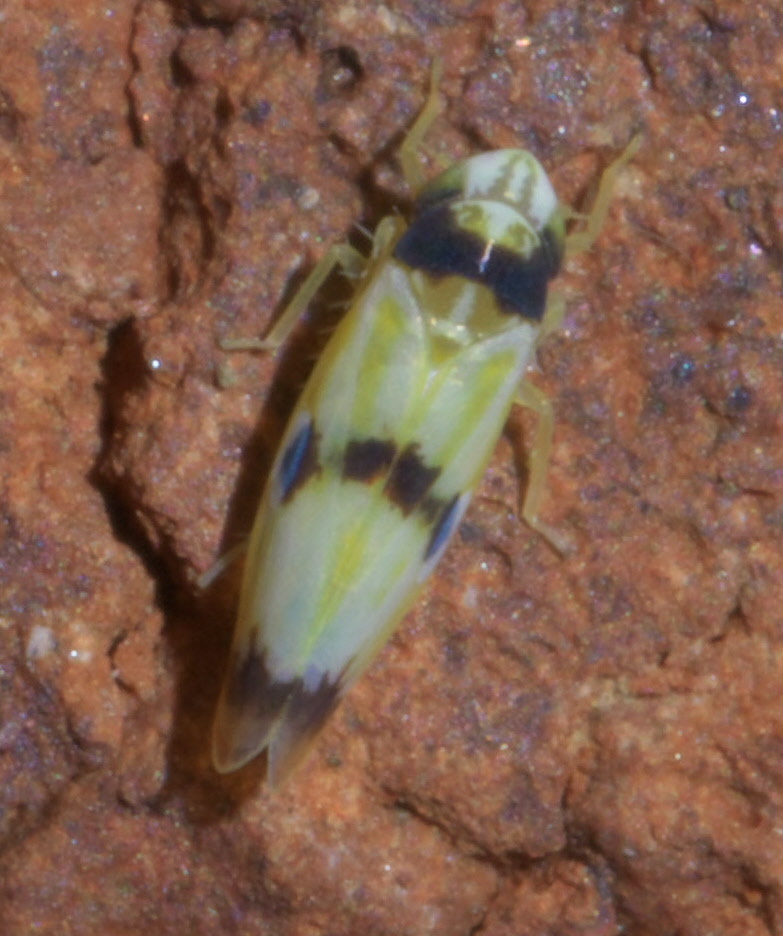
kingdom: Animalia
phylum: Arthropoda
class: Insecta
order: Hemiptera
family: Cicadellidae
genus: Erythroneura
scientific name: Erythroneura cymbium
